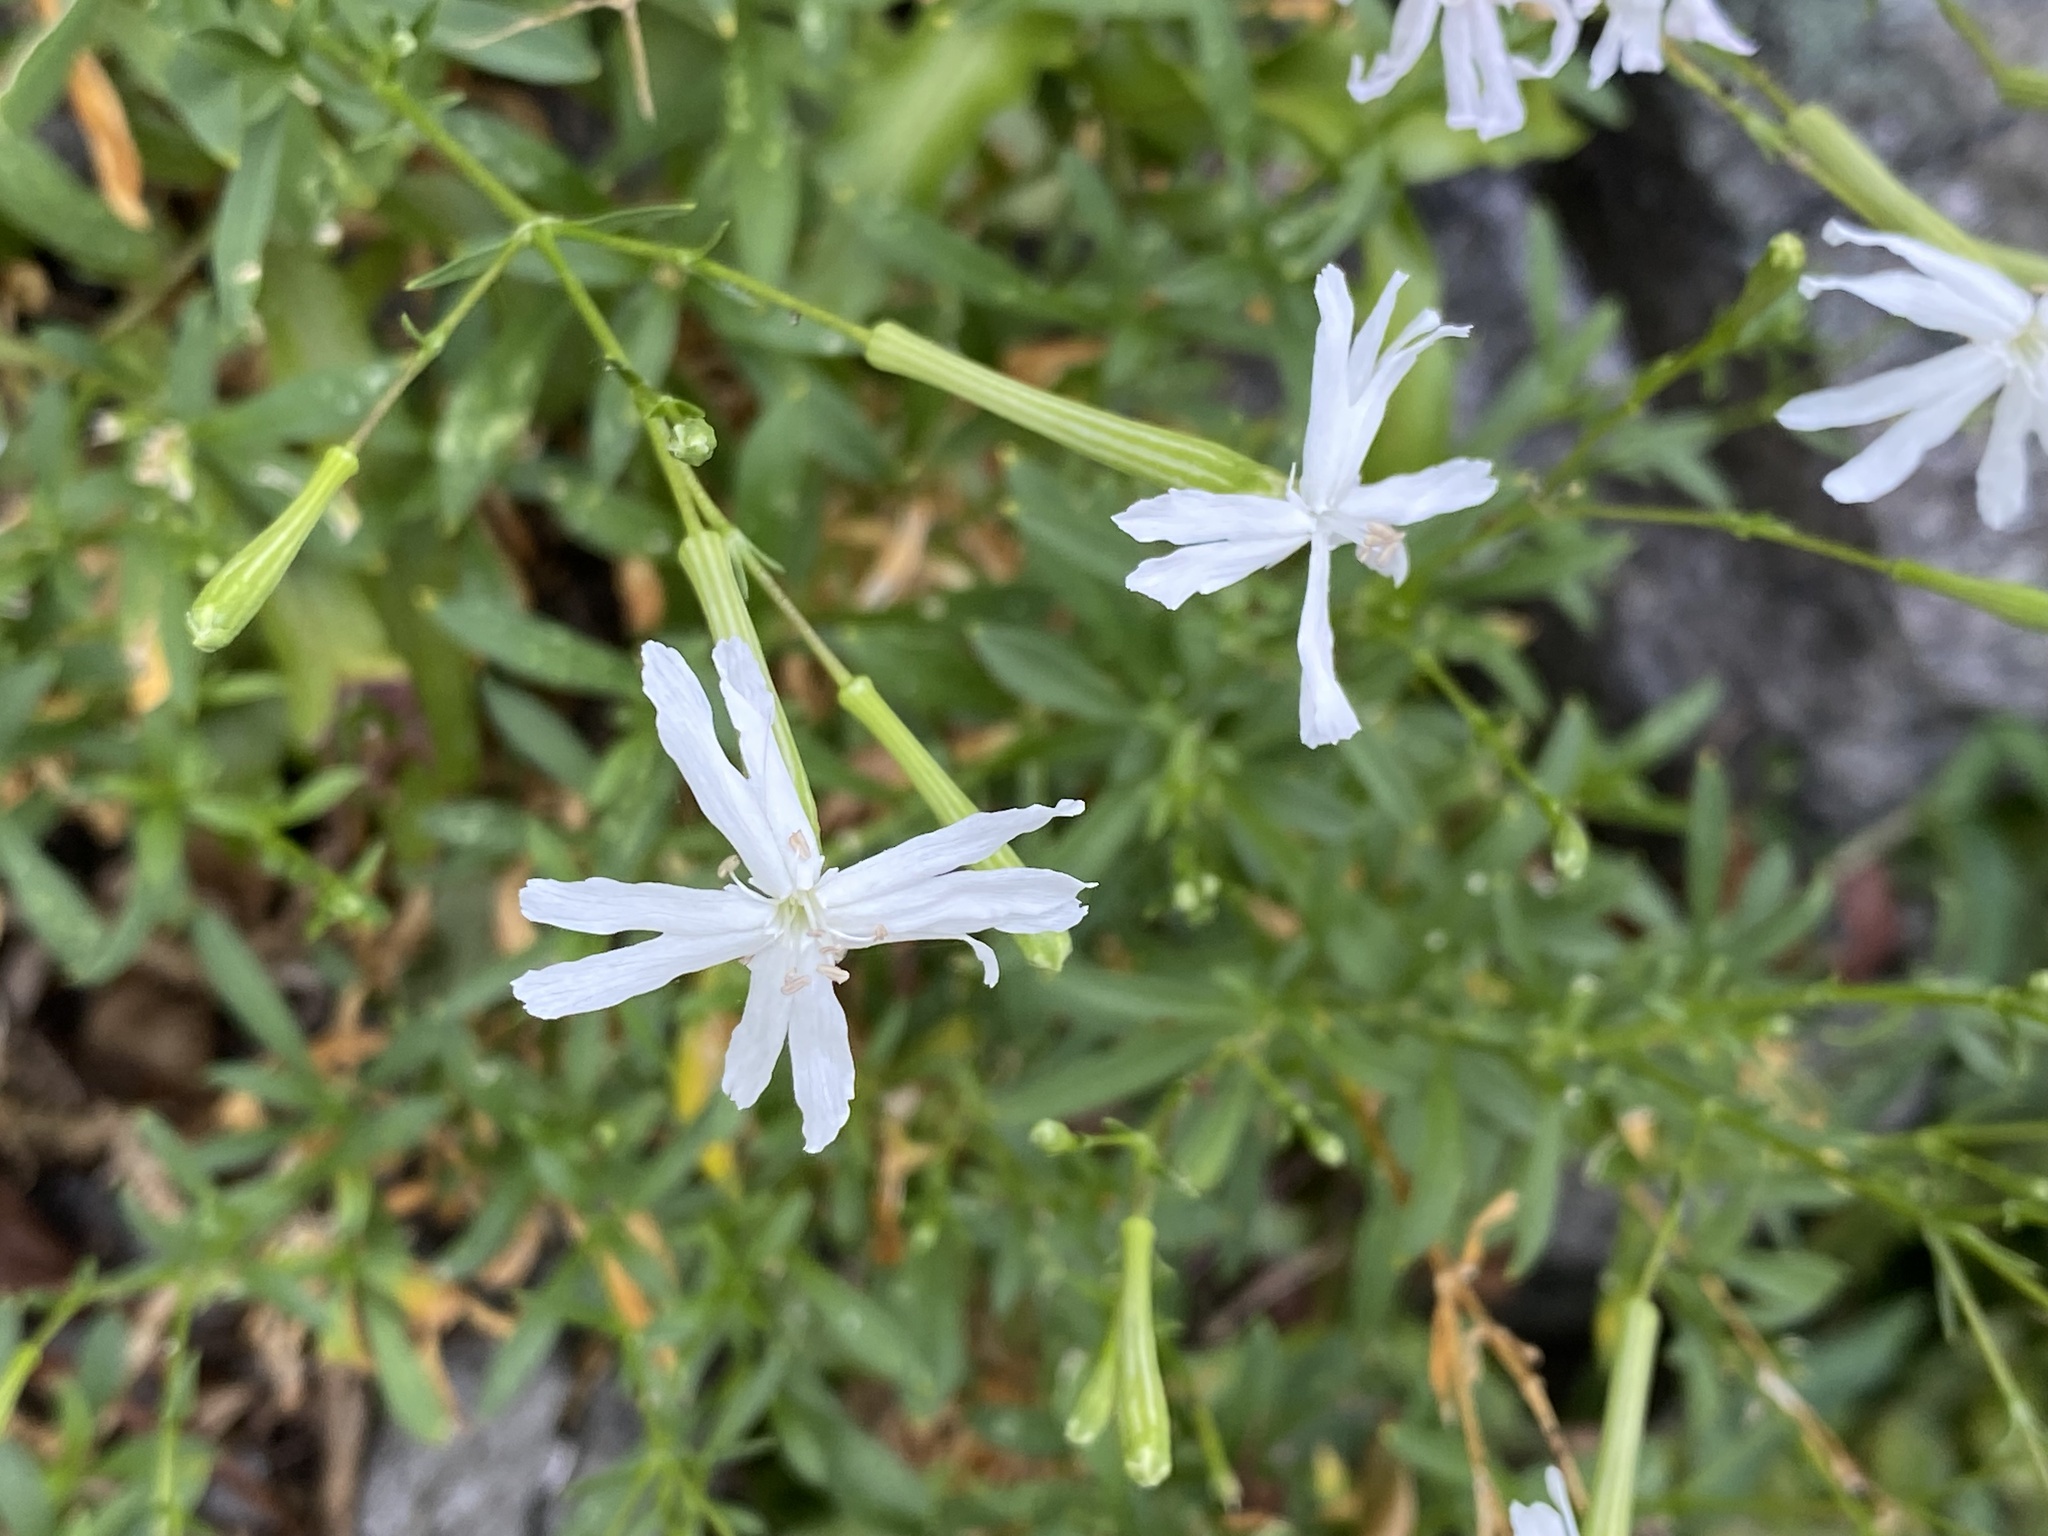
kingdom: Plantae
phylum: Tracheophyta
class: Magnoliopsida
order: Caryophyllales
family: Caryophyllaceae
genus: Silene
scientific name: Silene fissipetala
